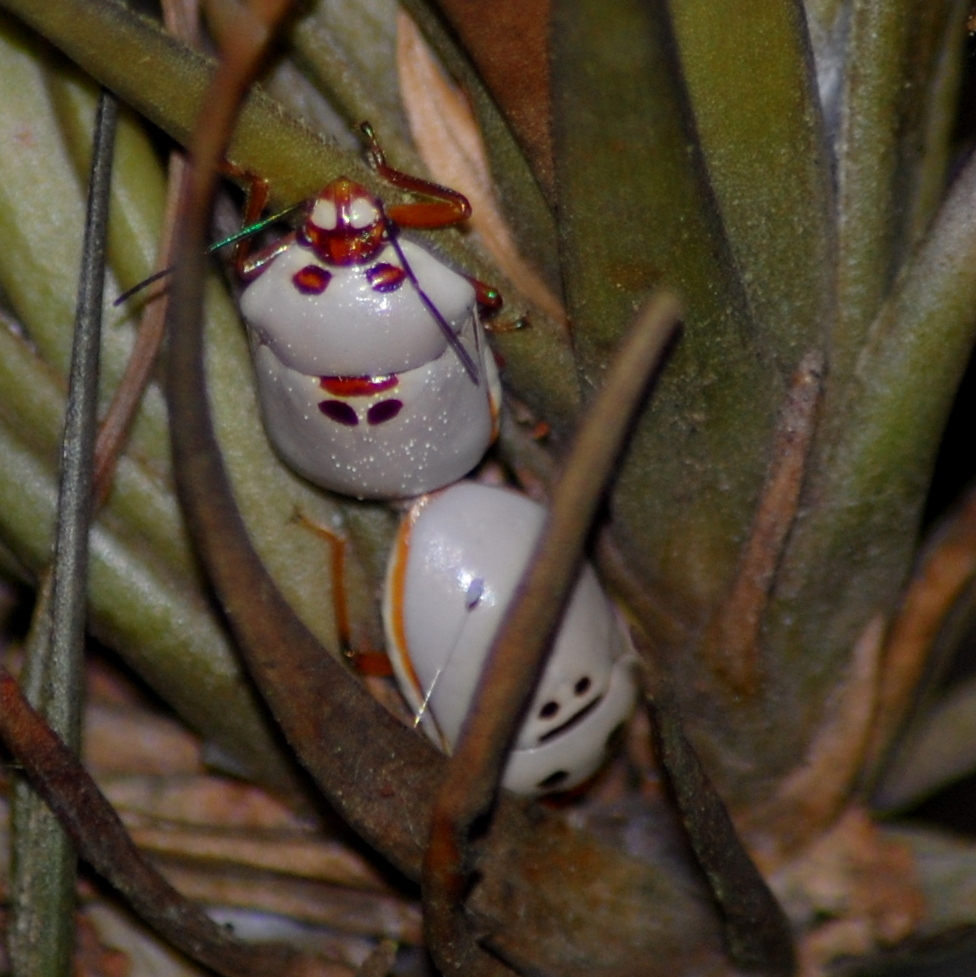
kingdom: Animalia
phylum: Arthropoda
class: Insecta
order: Hemiptera
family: Scutelleridae
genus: Augocoris
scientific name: Augocoris illustris
